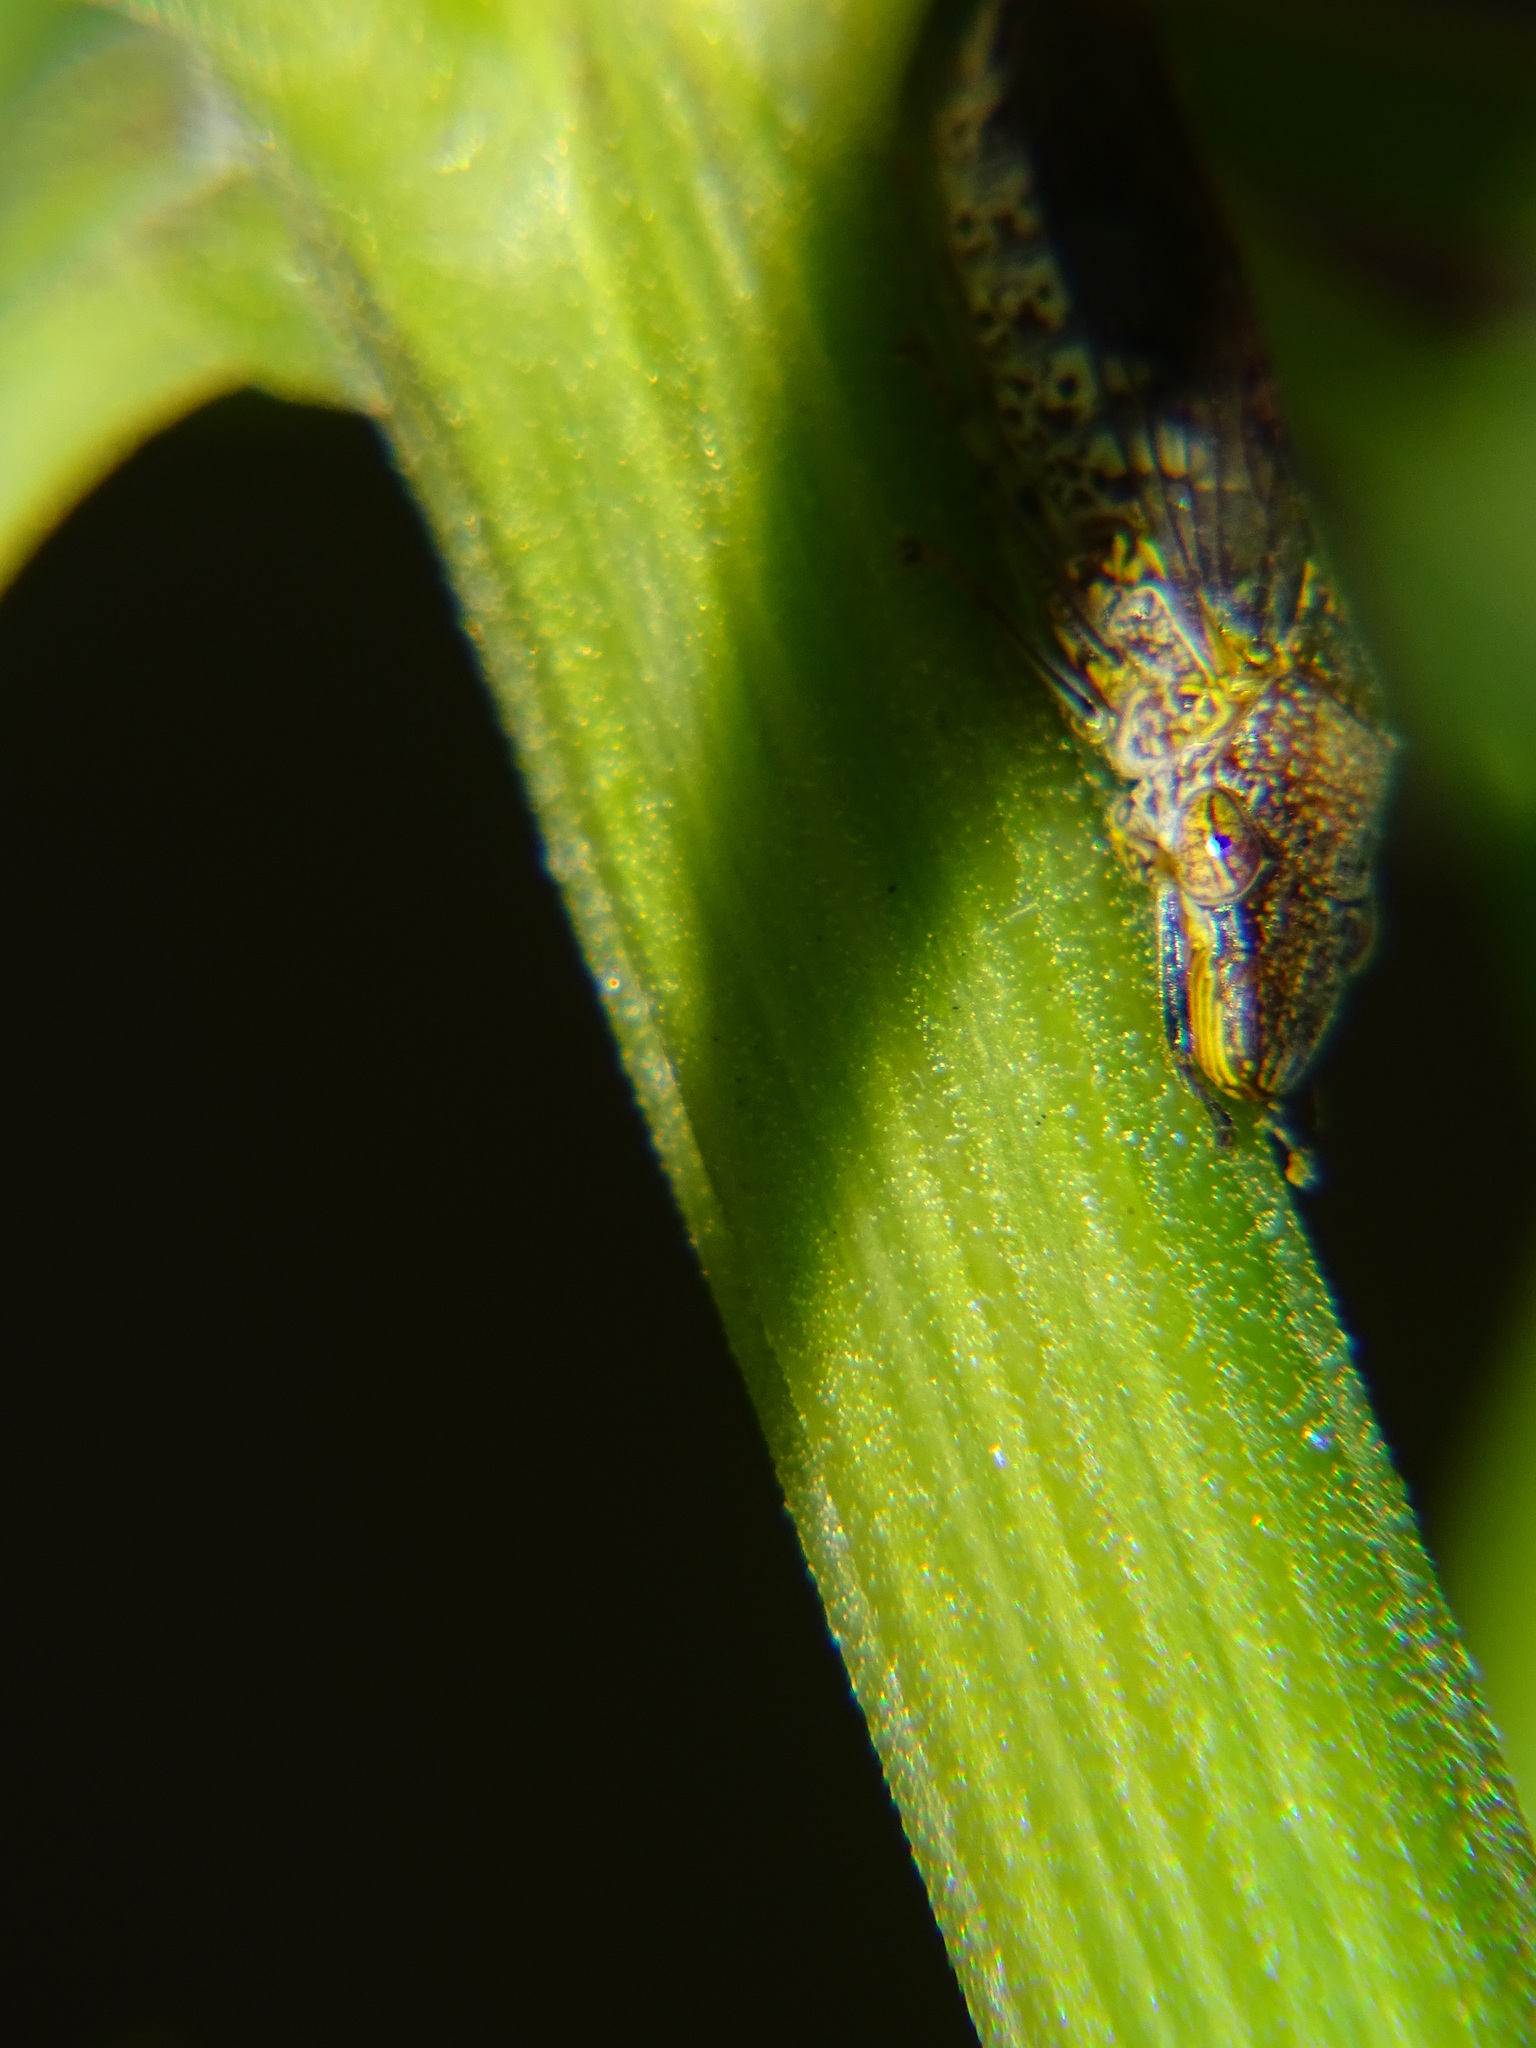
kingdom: Animalia
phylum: Arthropoda
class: Insecta
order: Hemiptera
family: Cicadellidae
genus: Homalodisca
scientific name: Homalodisca vitripennis
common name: Glassy-winged sharpshooter
